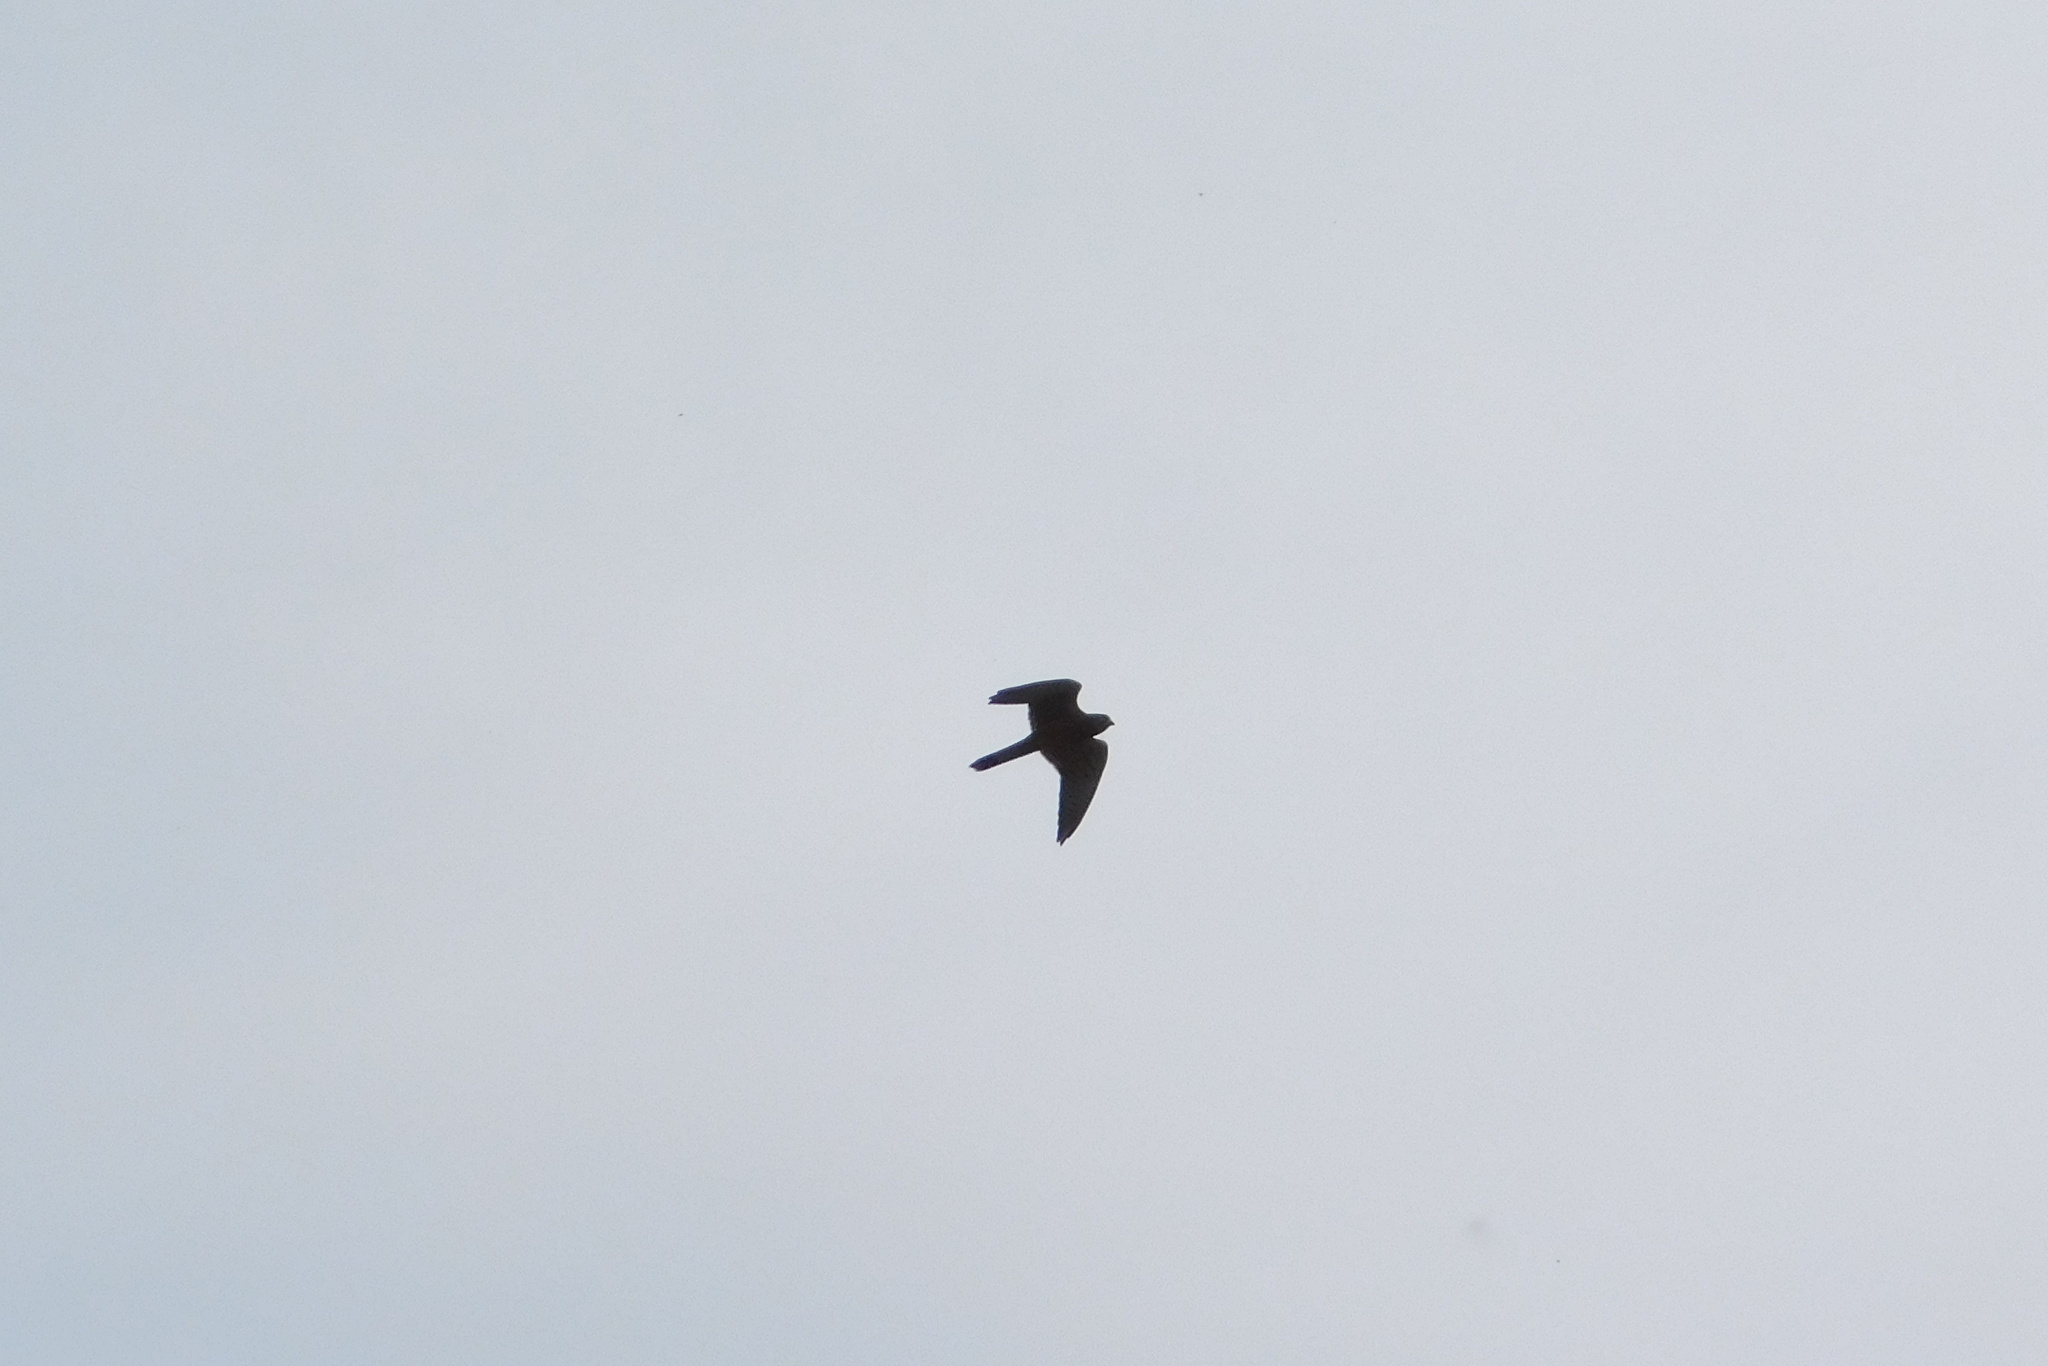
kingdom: Animalia
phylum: Chordata
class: Aves
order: Falconiformes
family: Falconidae
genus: Falco
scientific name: Falco tinnunculus
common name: Common kestrel
